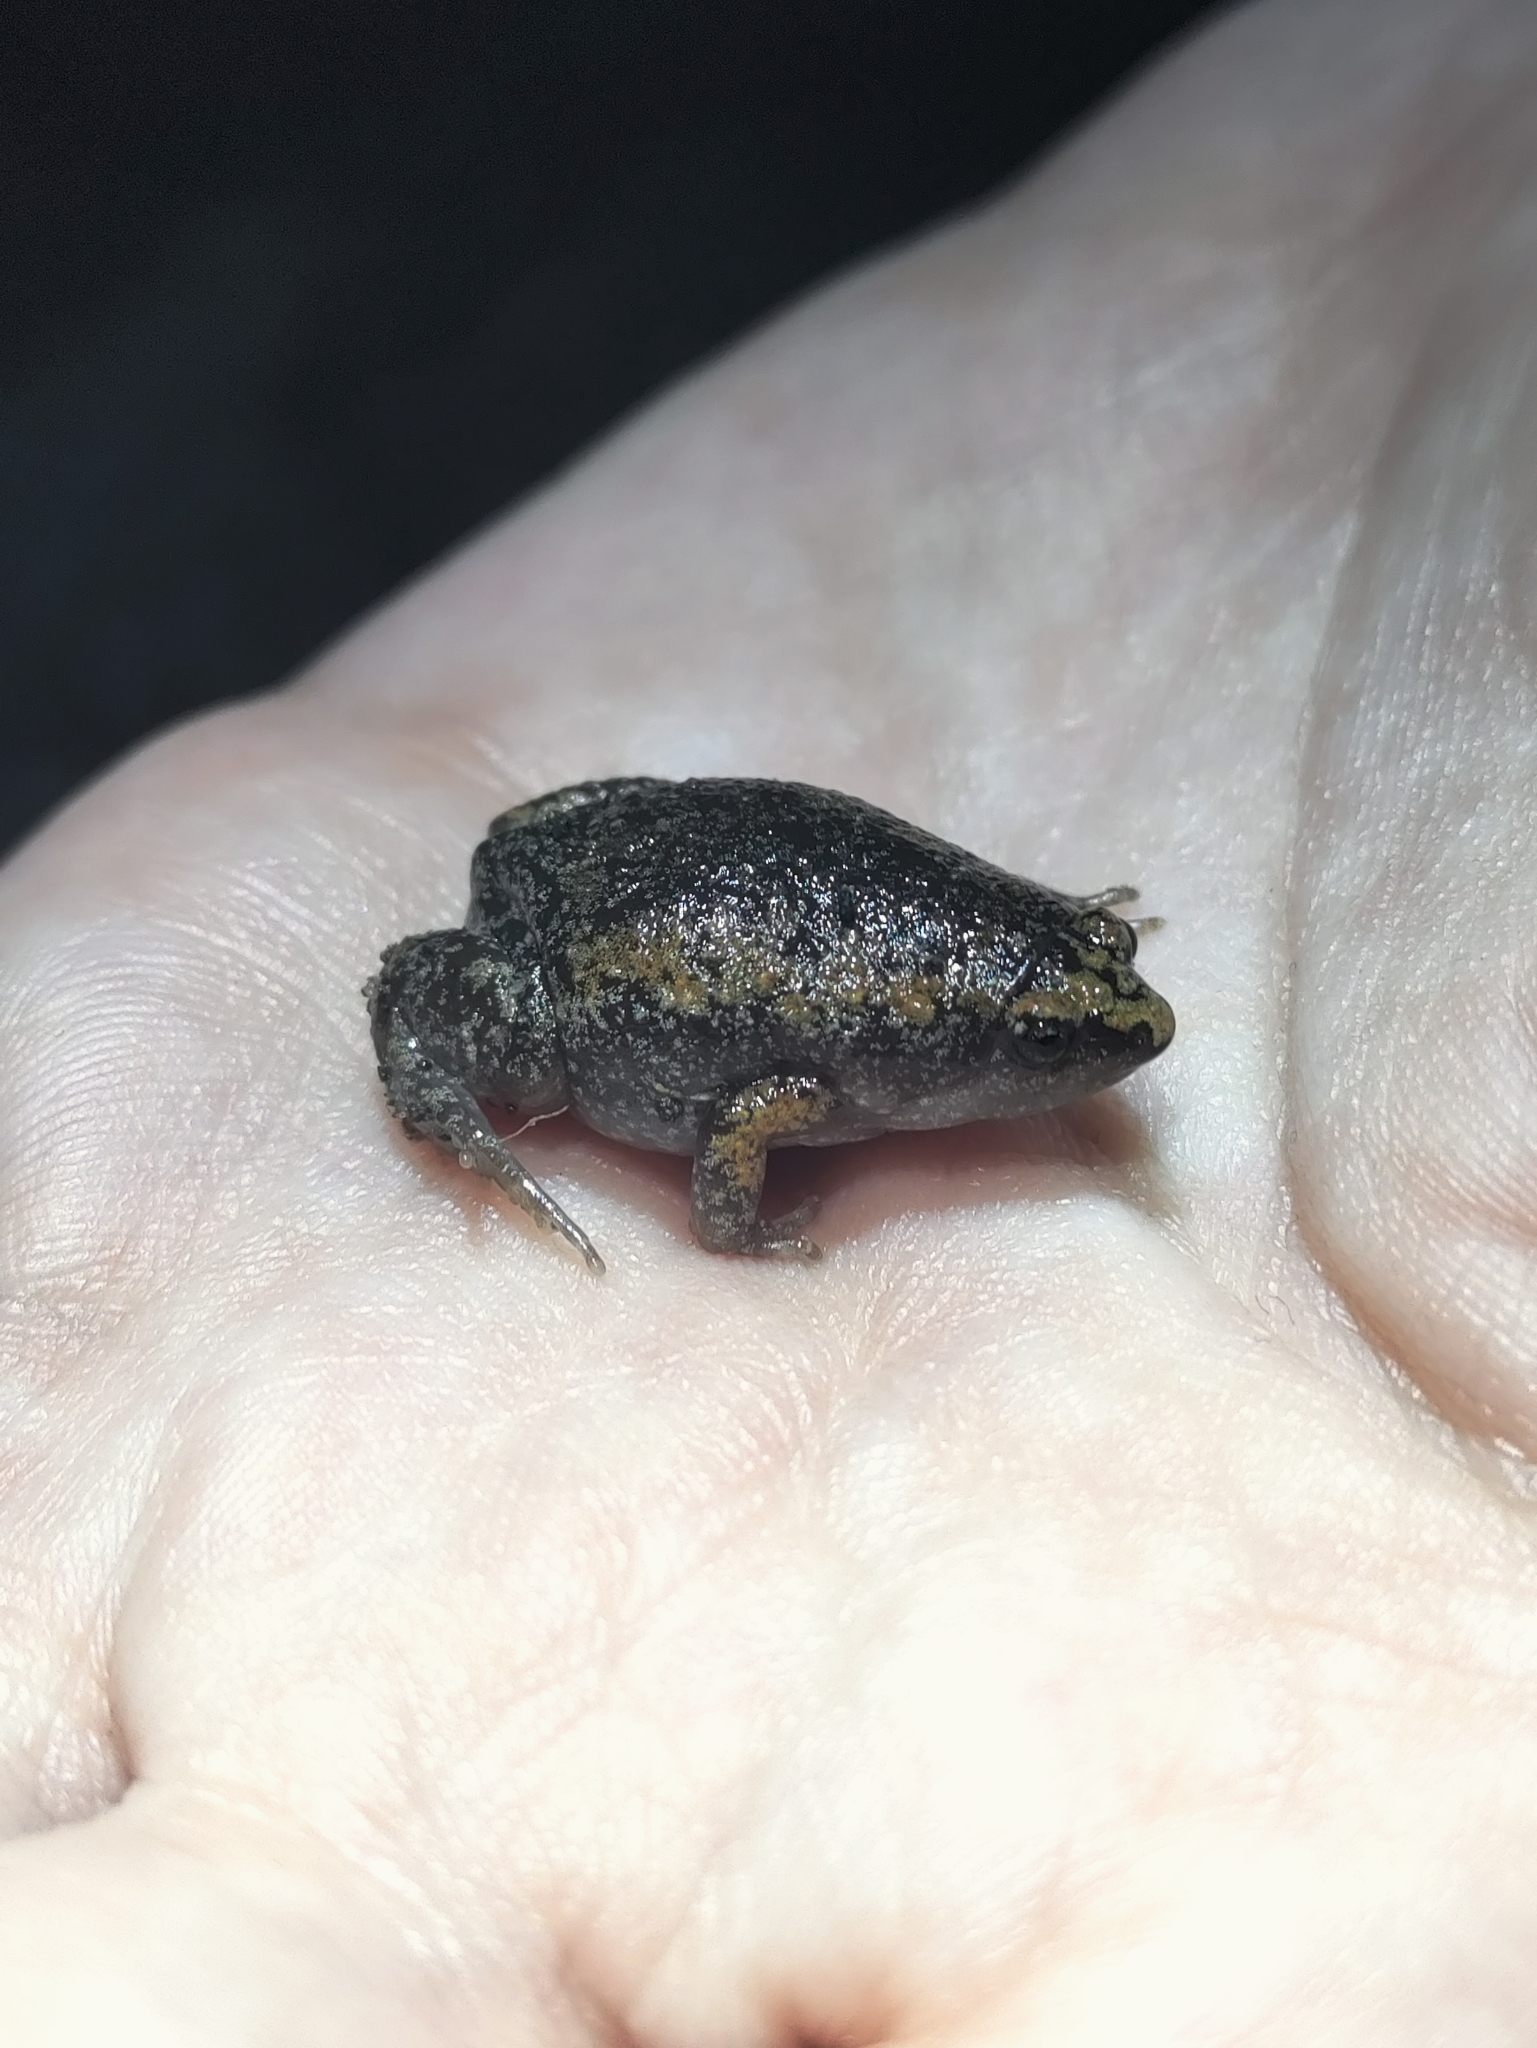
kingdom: Animalia
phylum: Chordata
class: Amphibia
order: Anura
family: Microhylidae
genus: Gastrophryne
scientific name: Gastrophryne carolinensis
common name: Eastern narrowmouth toad
